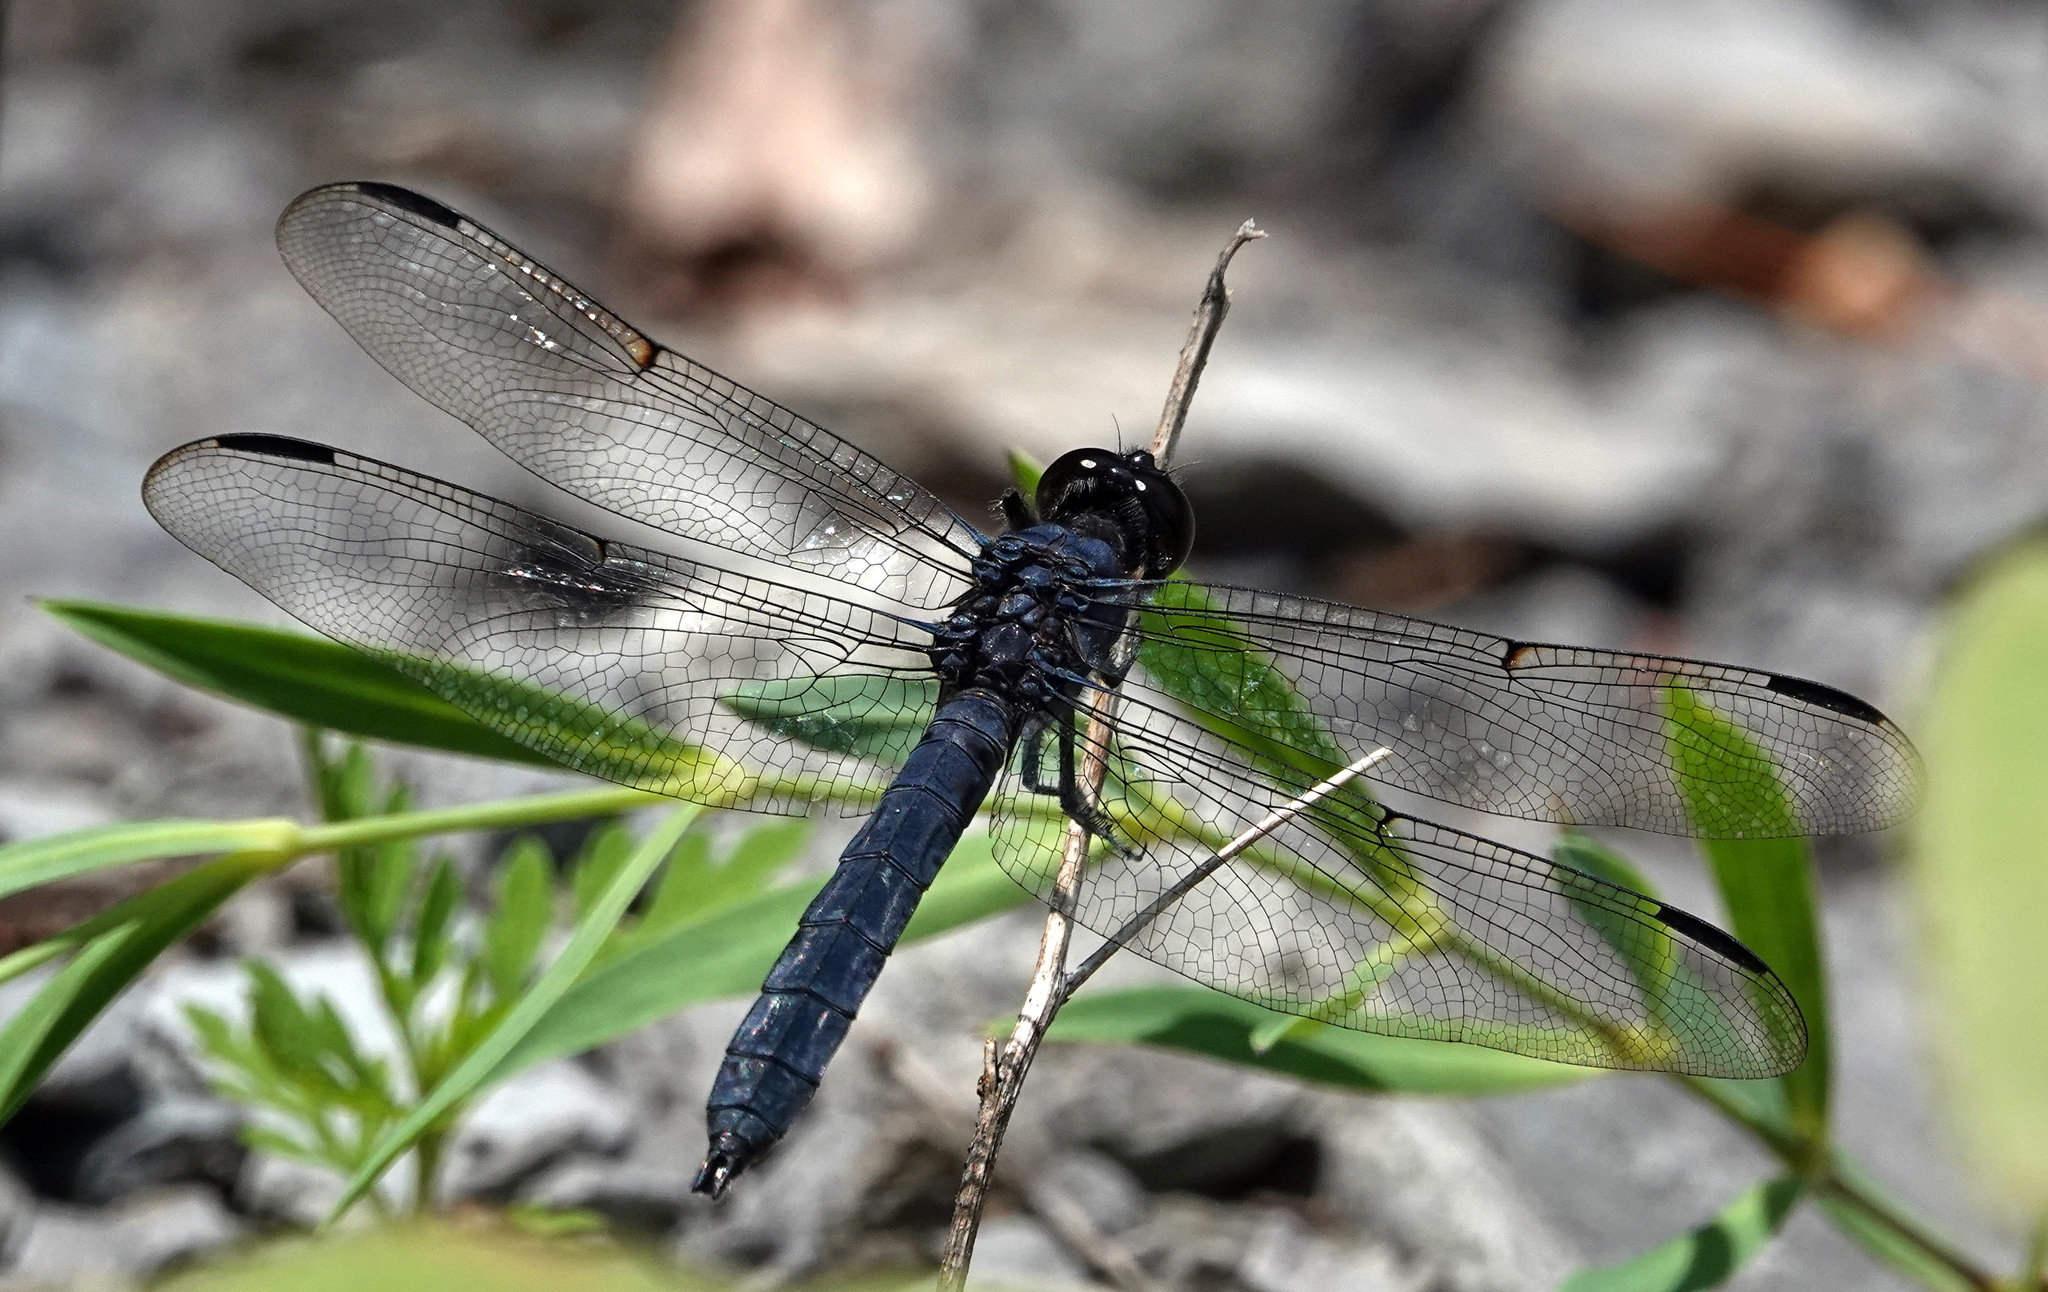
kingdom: Animalia
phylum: Arthropoda
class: Insecta
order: Odonata
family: Libellulidae
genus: Libellula
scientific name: Libellula incesta
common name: Slaty skimmer
